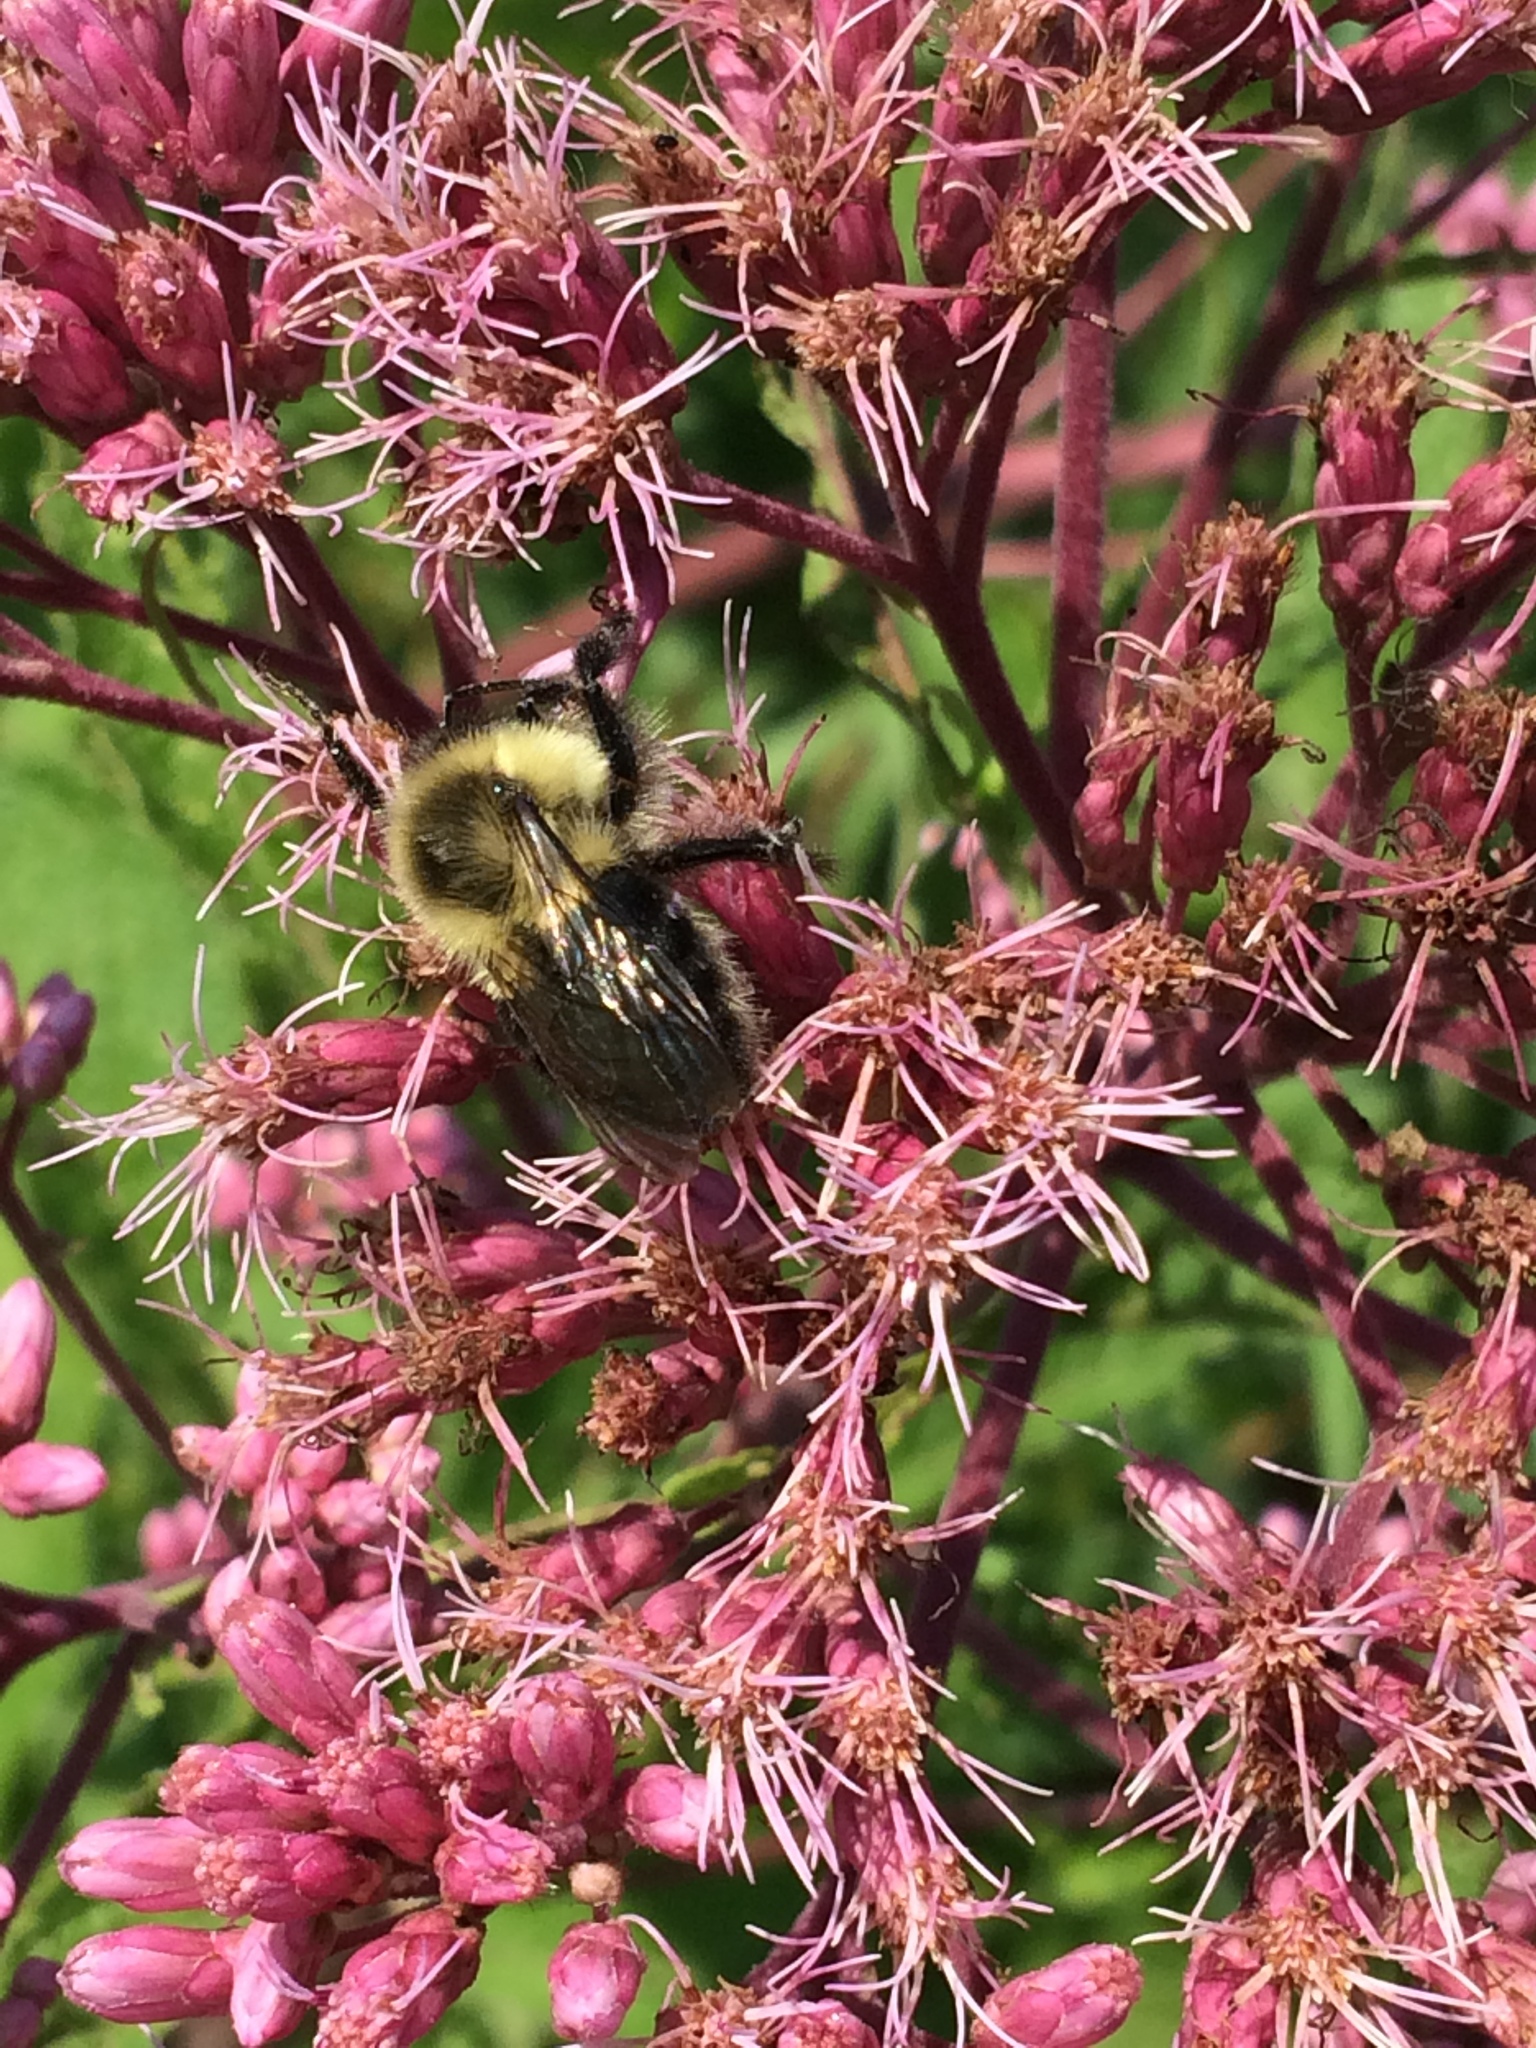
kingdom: Animalia
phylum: Arthropoda
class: Insecta
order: Hymenoptera
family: Apidae
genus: Bombus
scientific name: Bombus impatiens
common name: Common eastern bumble bee
